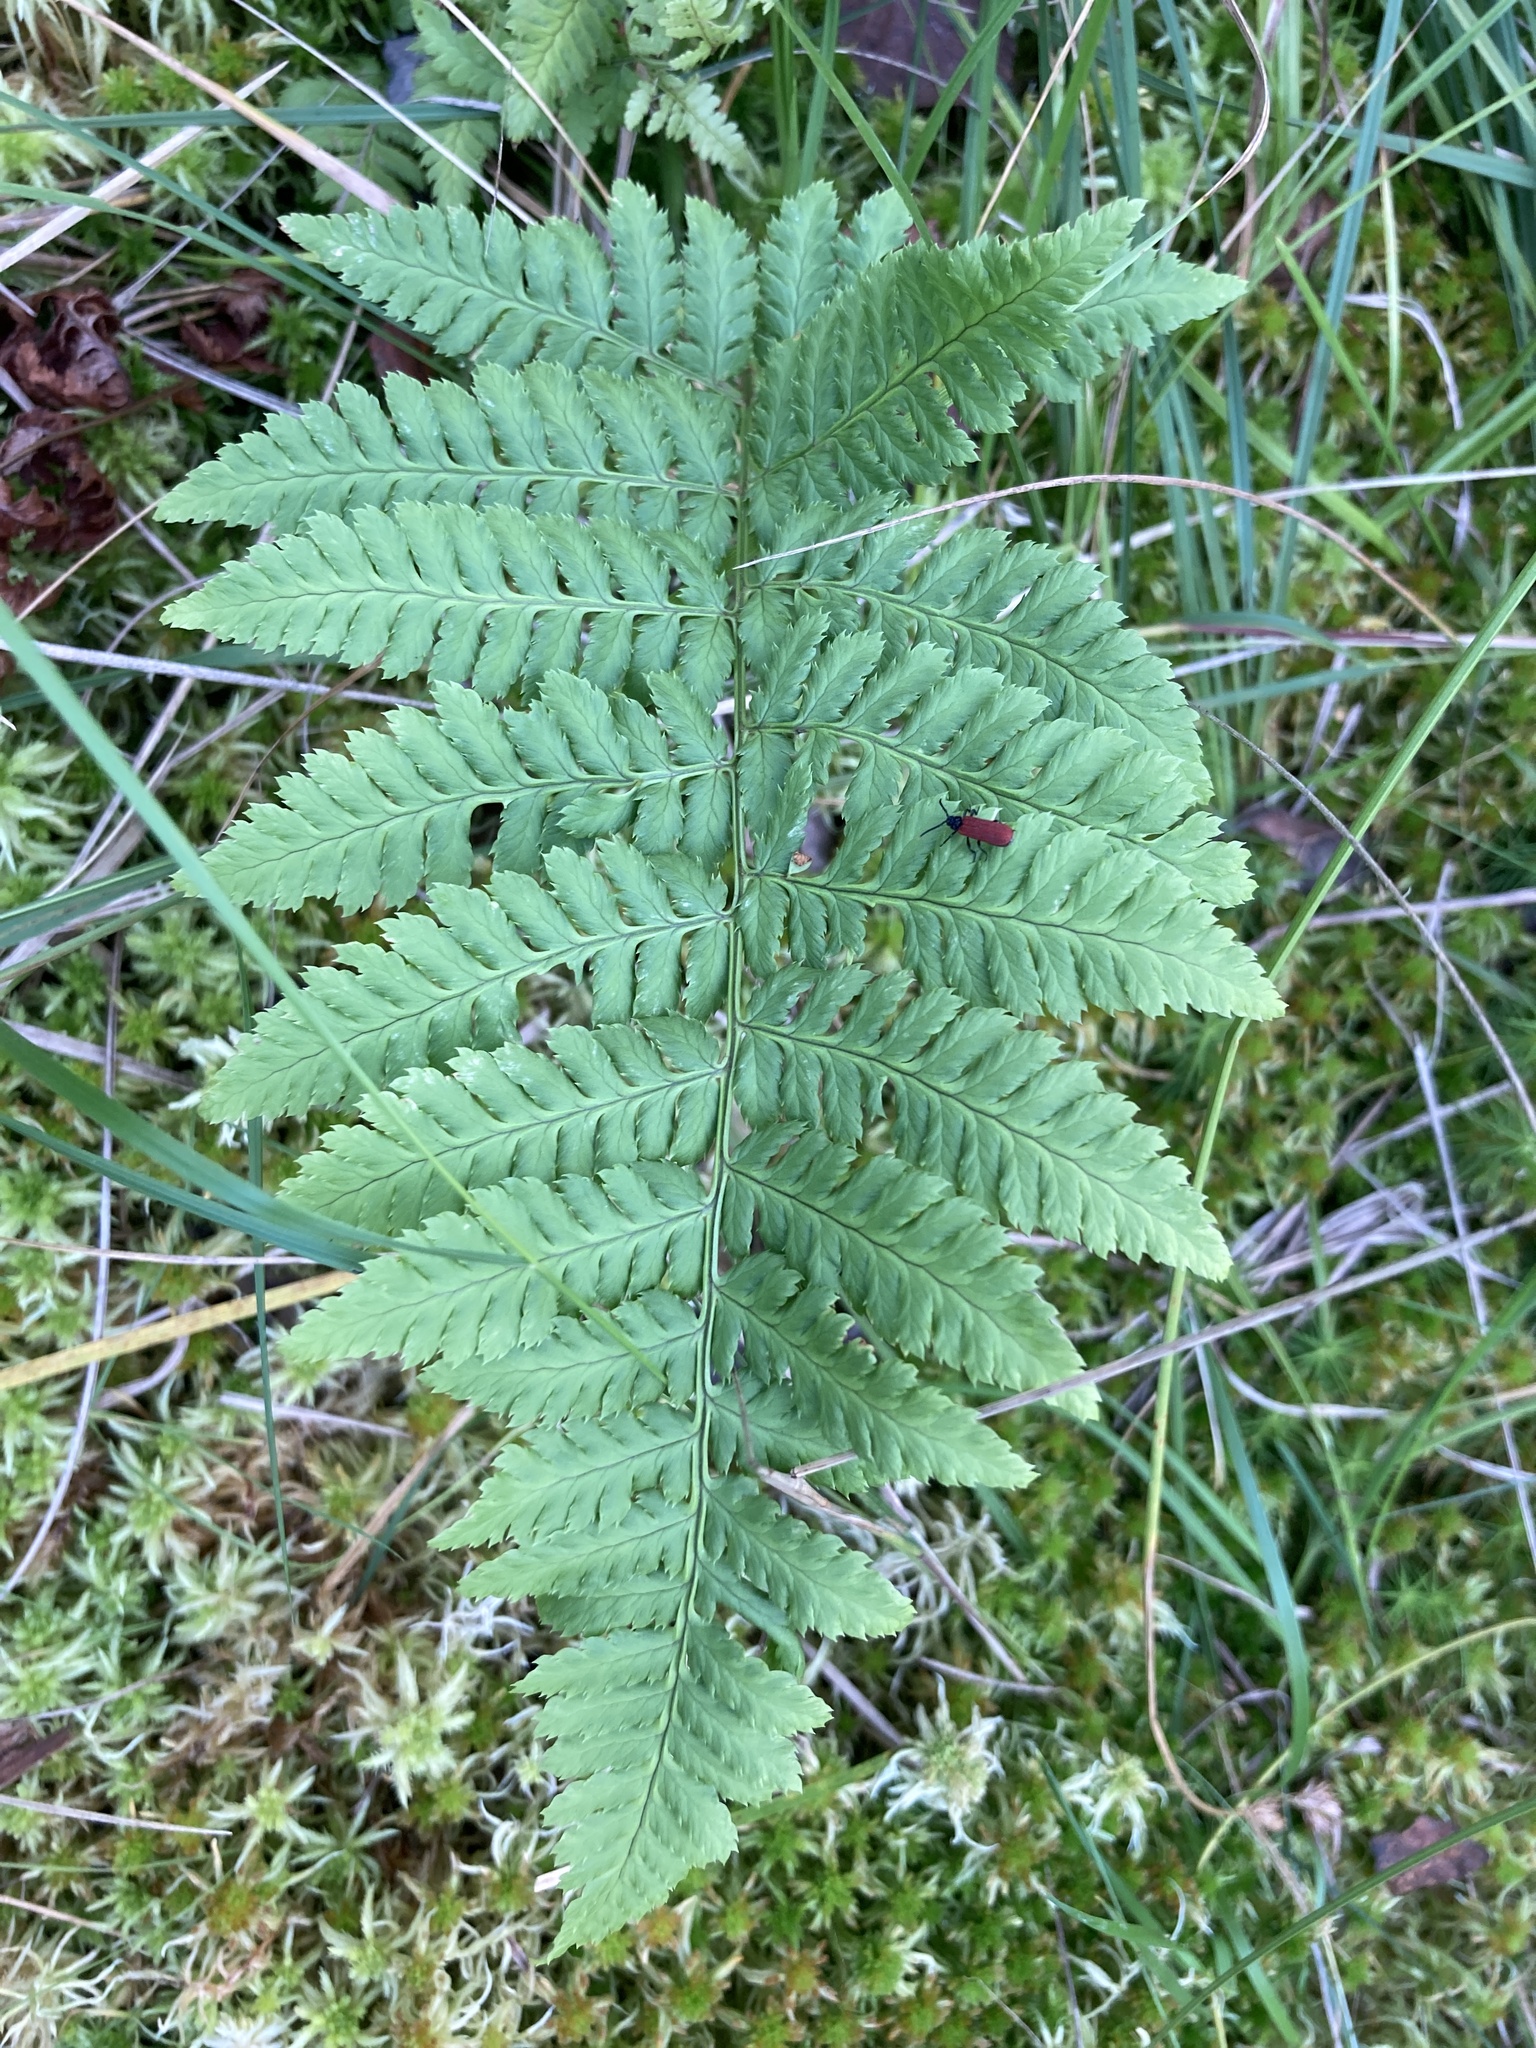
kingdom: Plantae
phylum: Tracheophyta
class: Polypodiopsida
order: Polypodiales
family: Dryopteridaceae
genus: Dryopteris
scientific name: Dryopteris carthusiana
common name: Narrow buckler-fern
